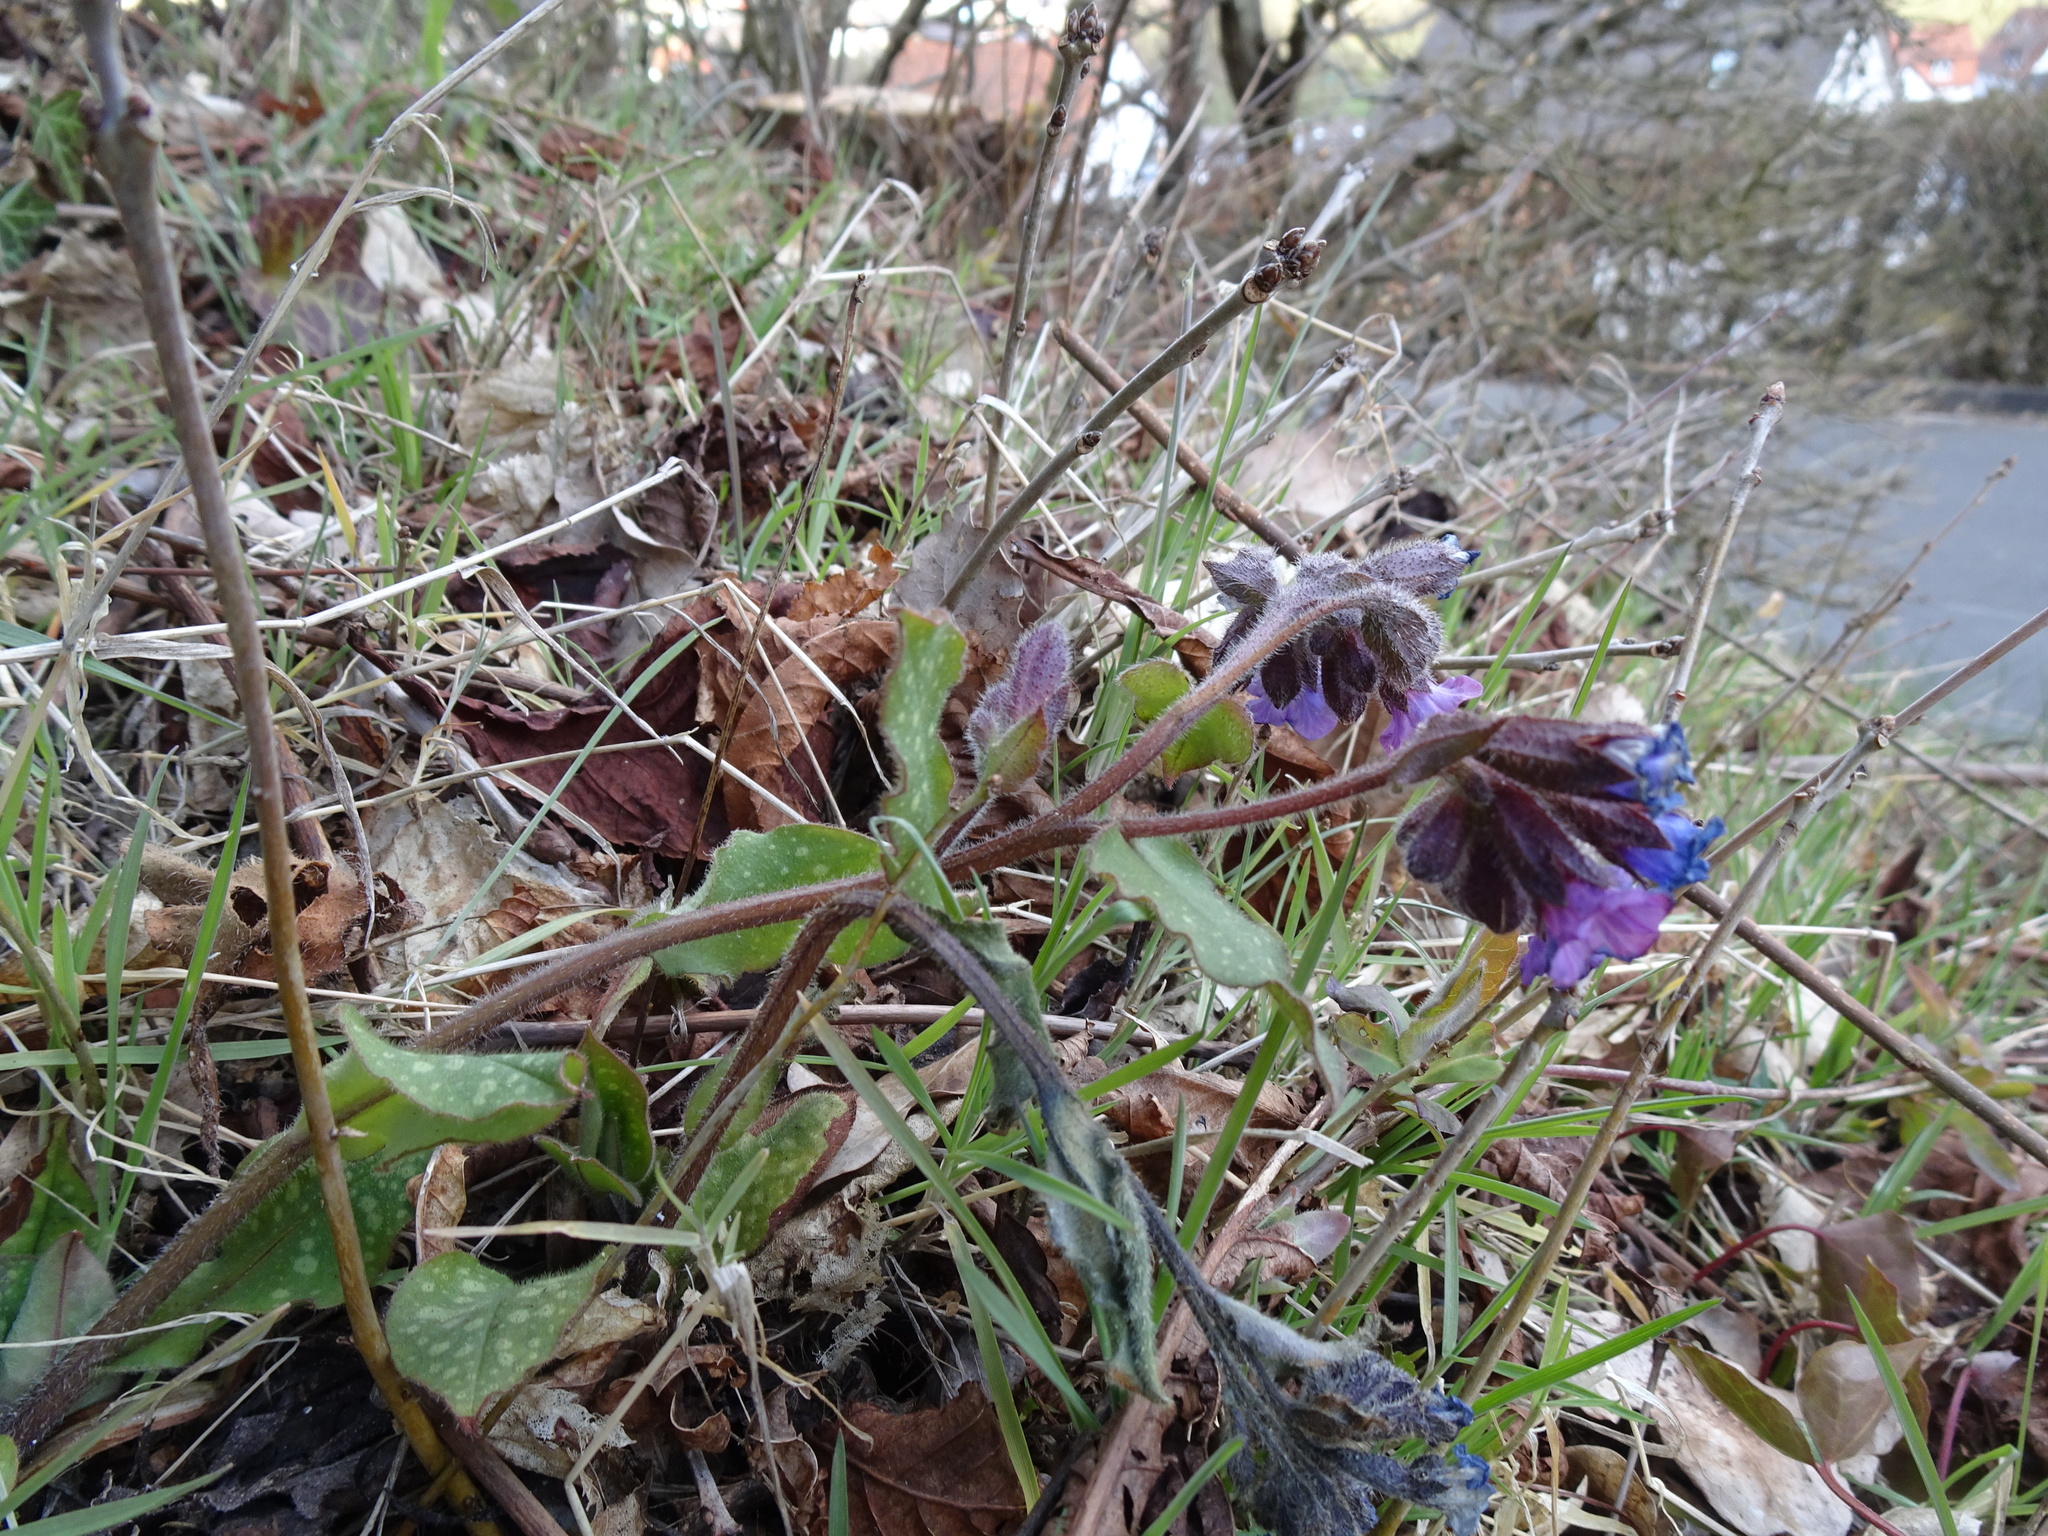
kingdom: Plantae
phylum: Tracheophyta
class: Magnoliopsida
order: Boraginales
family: Boraginaceae
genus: Pulmonaria
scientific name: Pulmonaria officinalis
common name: Lungwort
